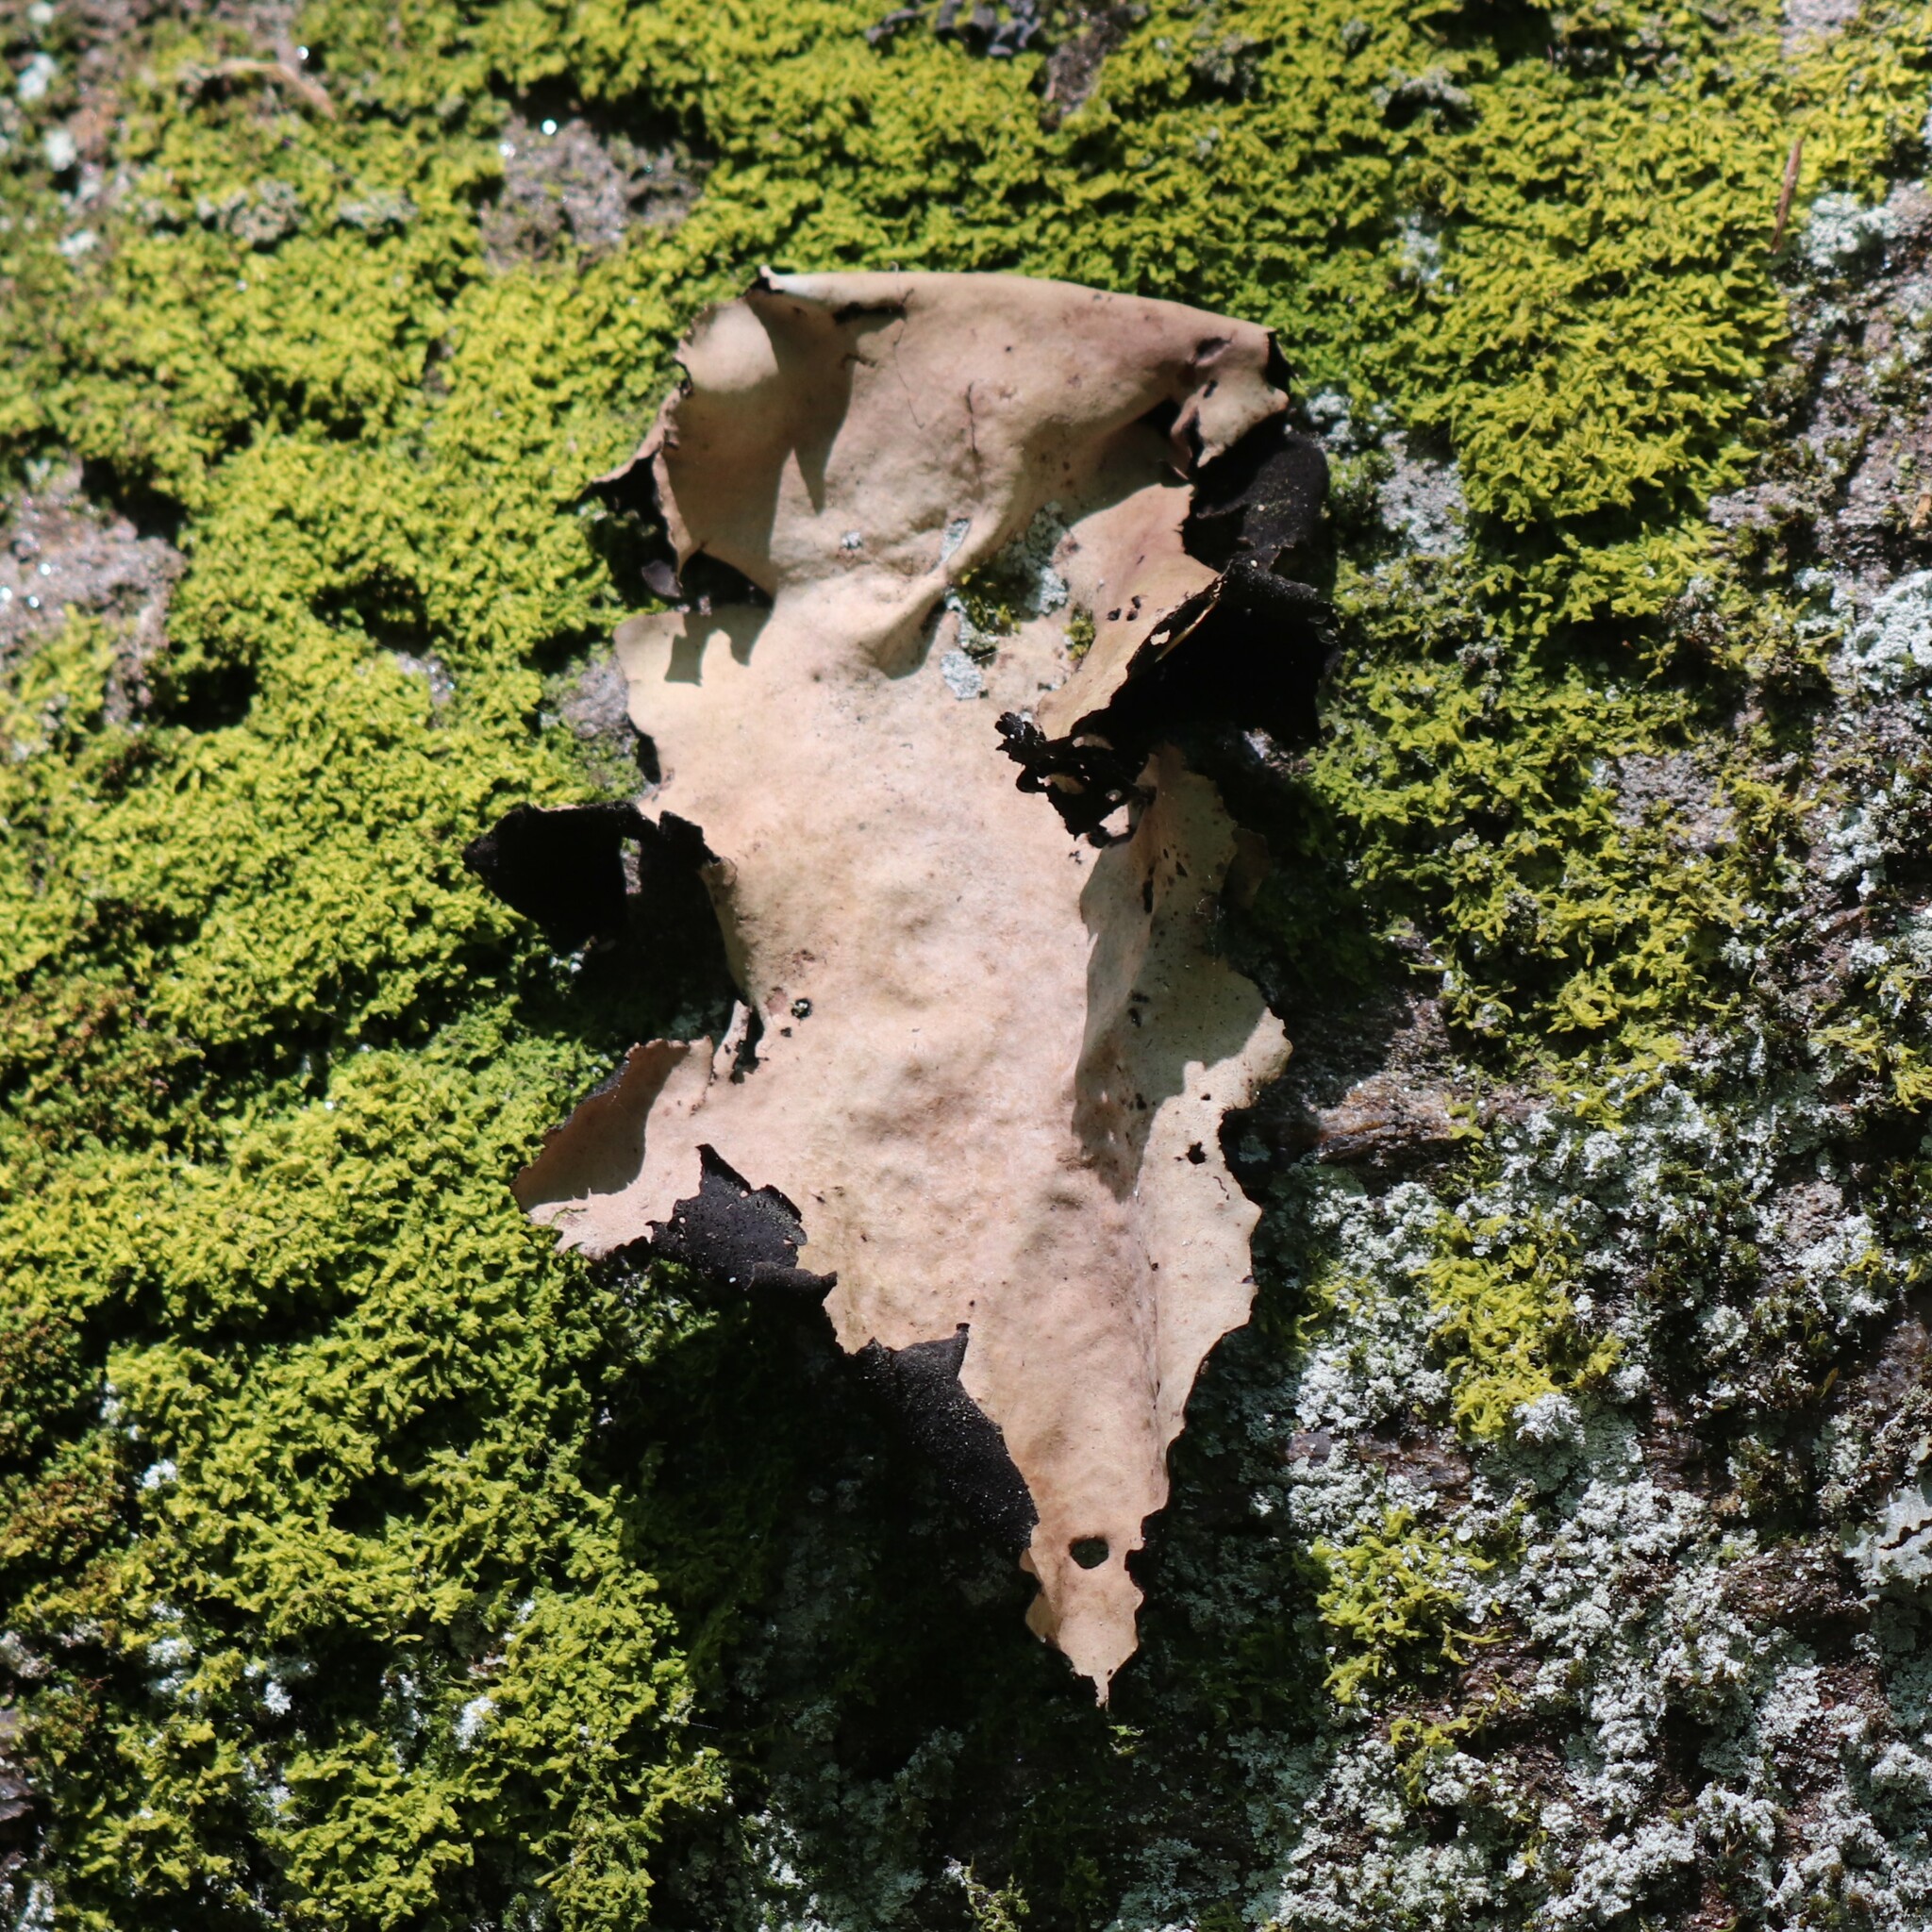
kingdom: Fungi
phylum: Ascomycota
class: Lecanoromycetes
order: Umbilicariales
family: Umbilicariaceae
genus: Umbilicaria
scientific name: Umbilicaria mammulata
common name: Smooth rock tripe
